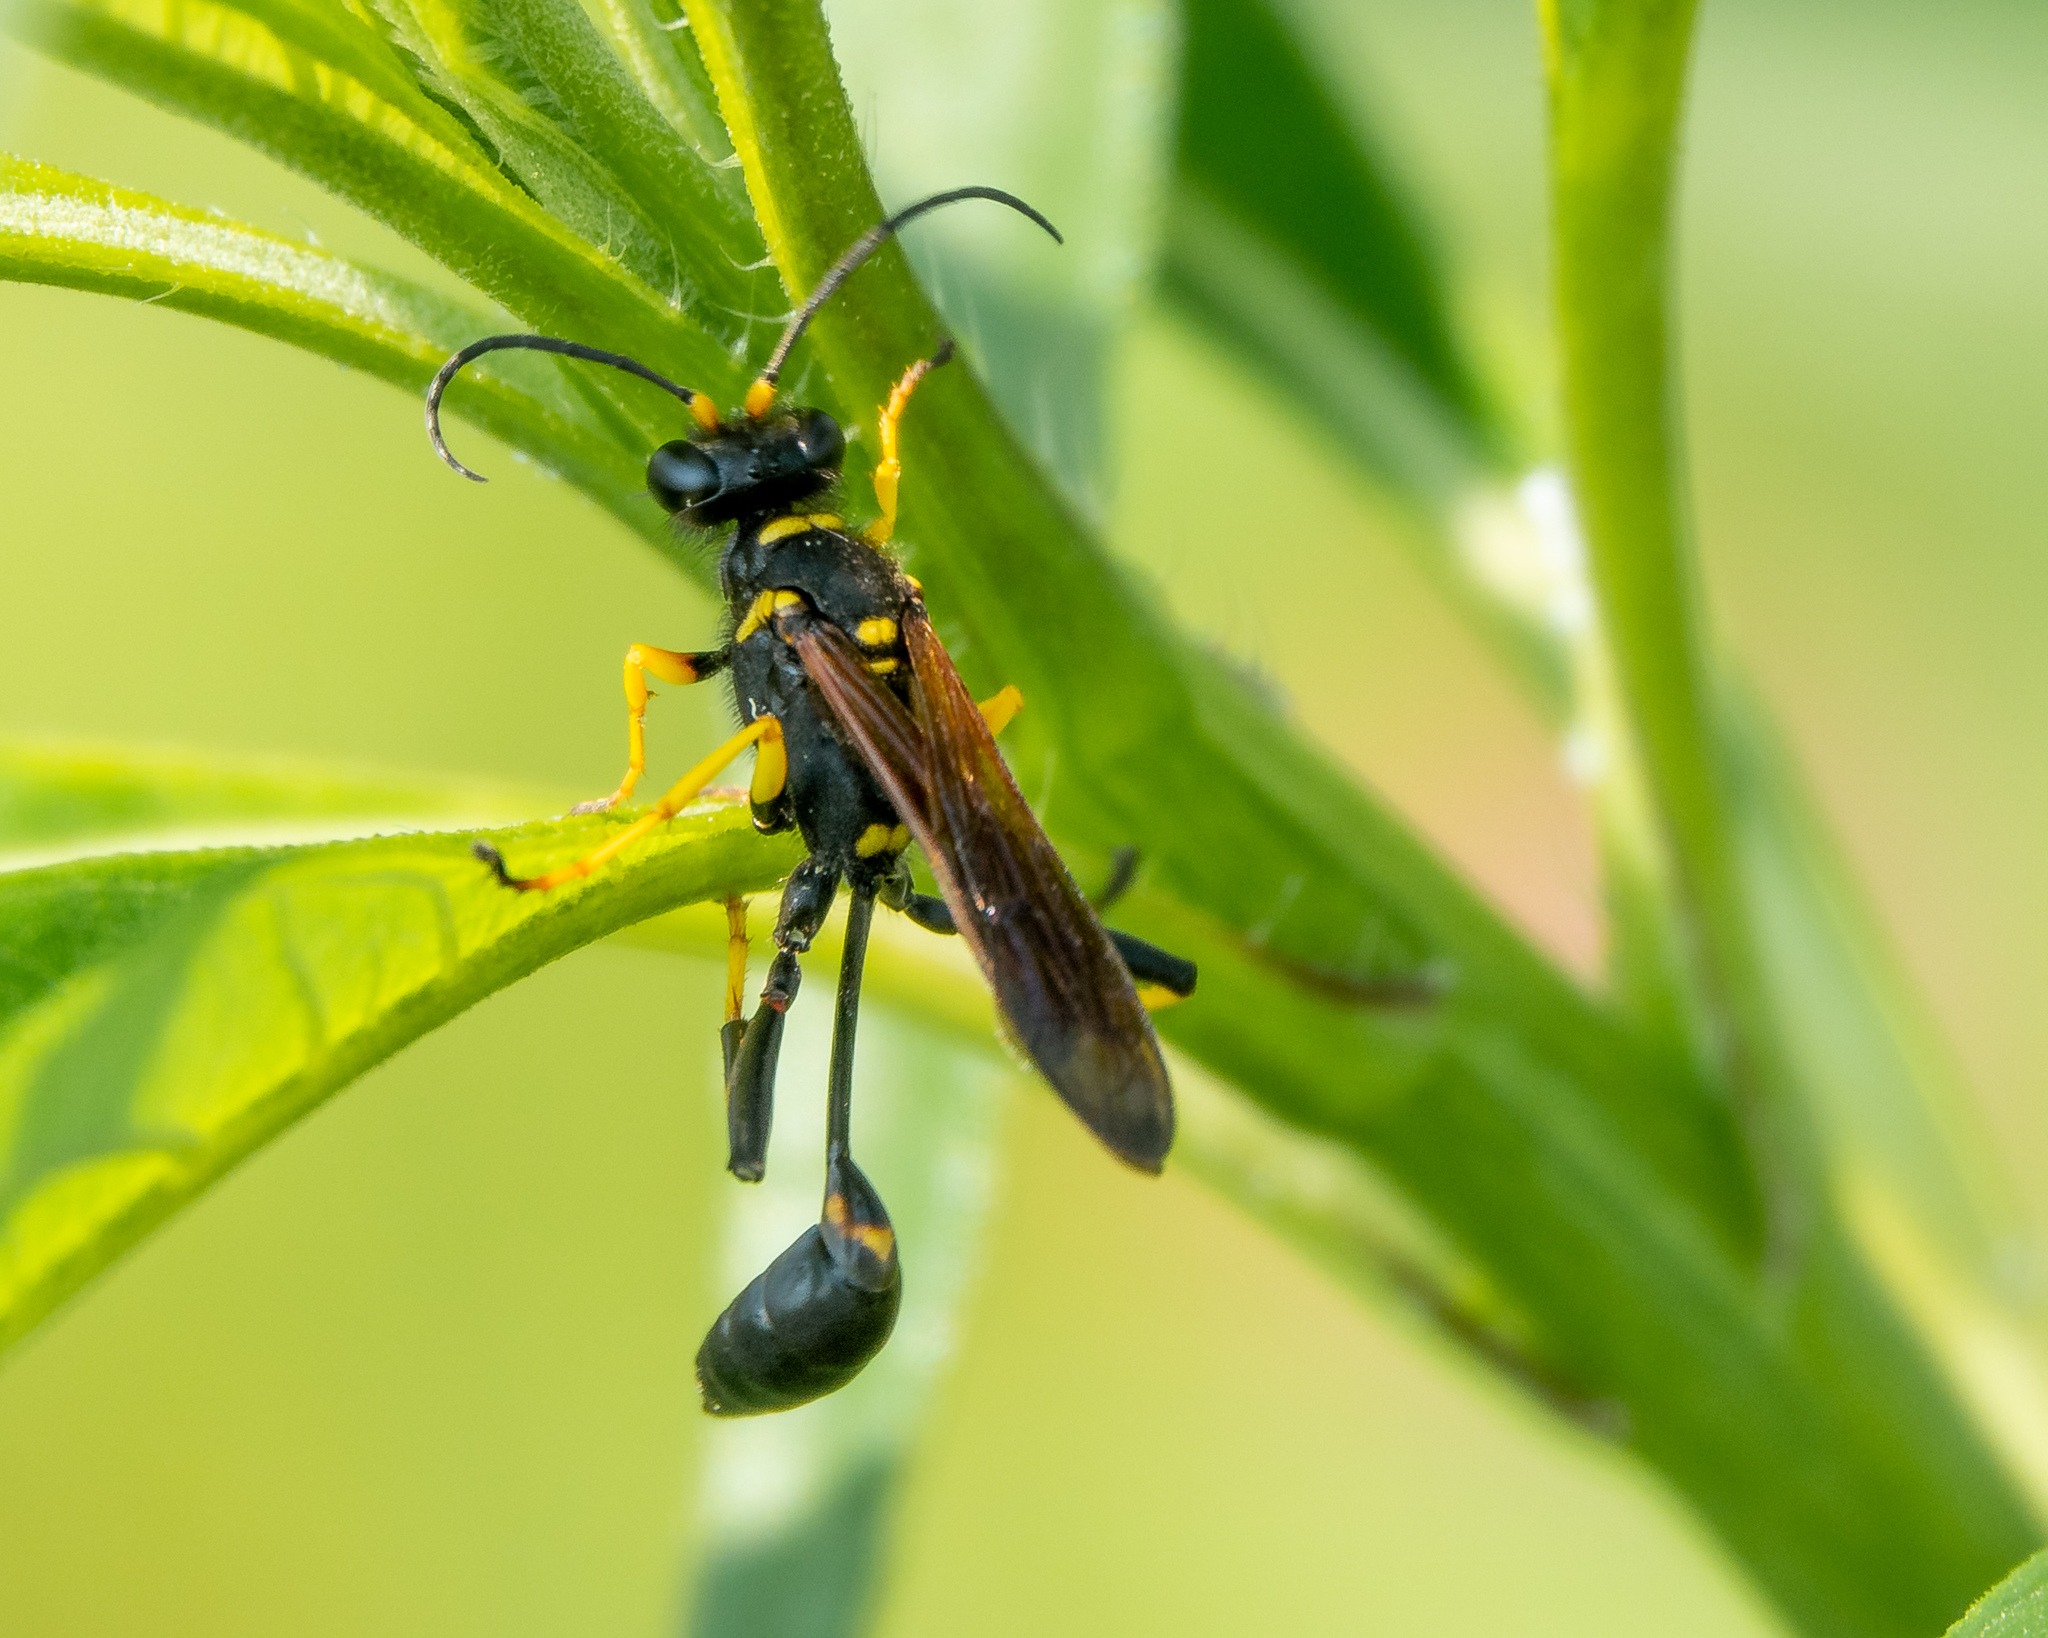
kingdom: Animalia
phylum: Arthropoda
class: Insecta
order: Hymenoptera
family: Sphecidae
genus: Sceliphron
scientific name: Sceliphron caementarium
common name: Mud dauber
